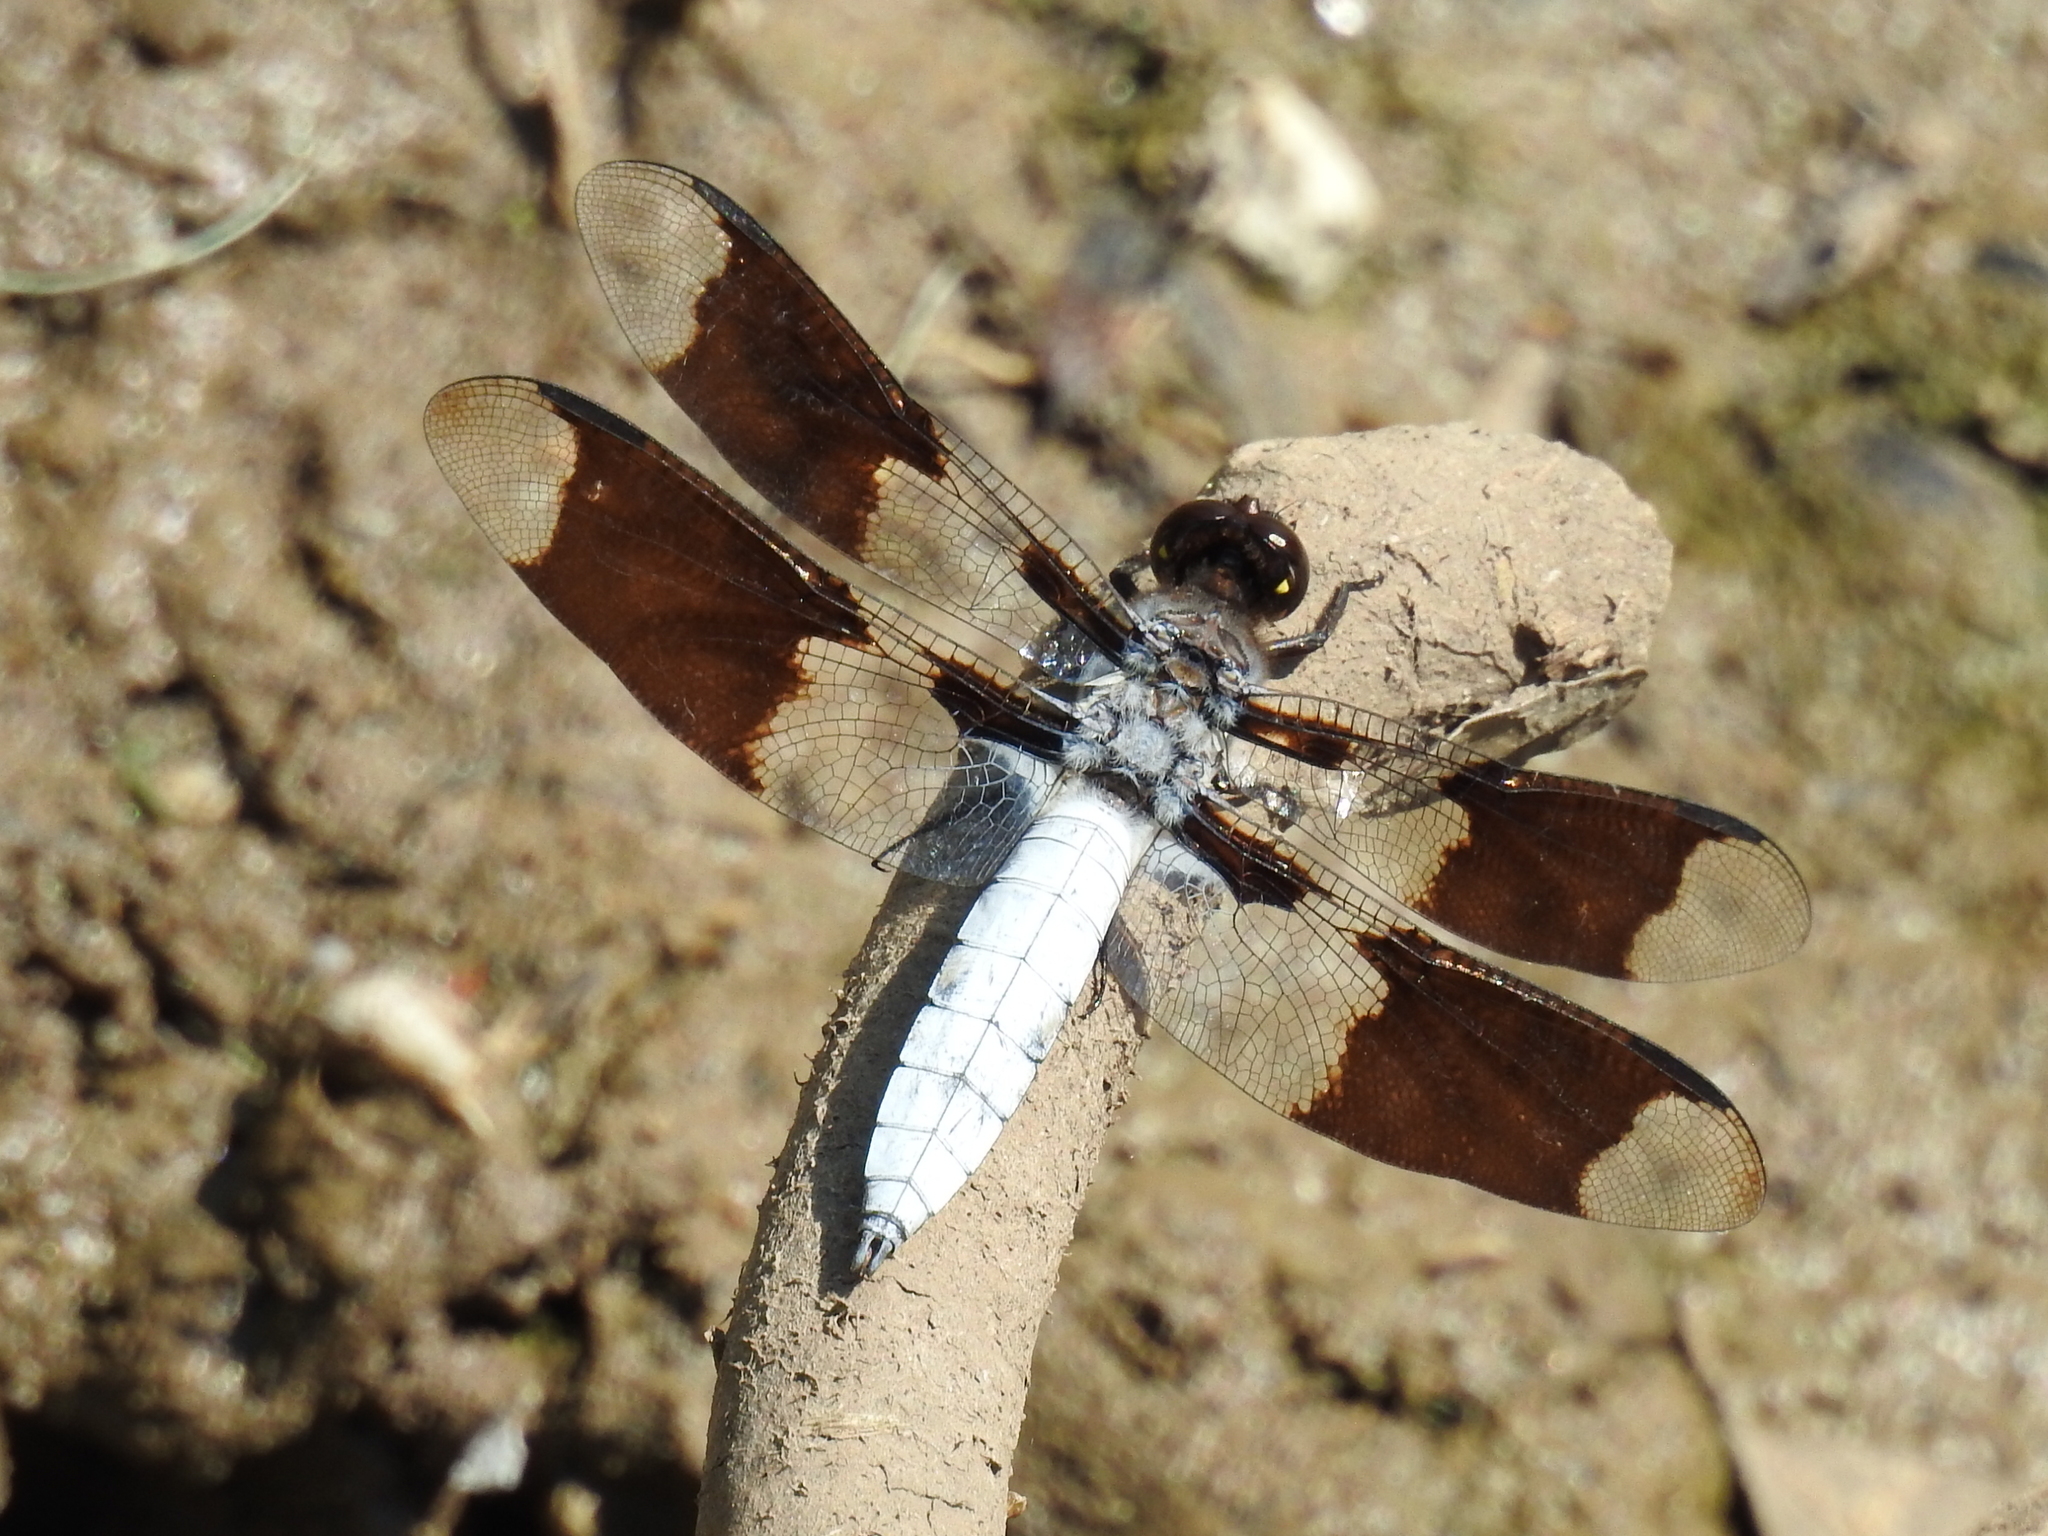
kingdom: Animalia
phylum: Arthropoda
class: Insecta
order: Odonata
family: Libellulidae
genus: Plathemis
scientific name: Plathemis lydia
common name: Common whitetail
